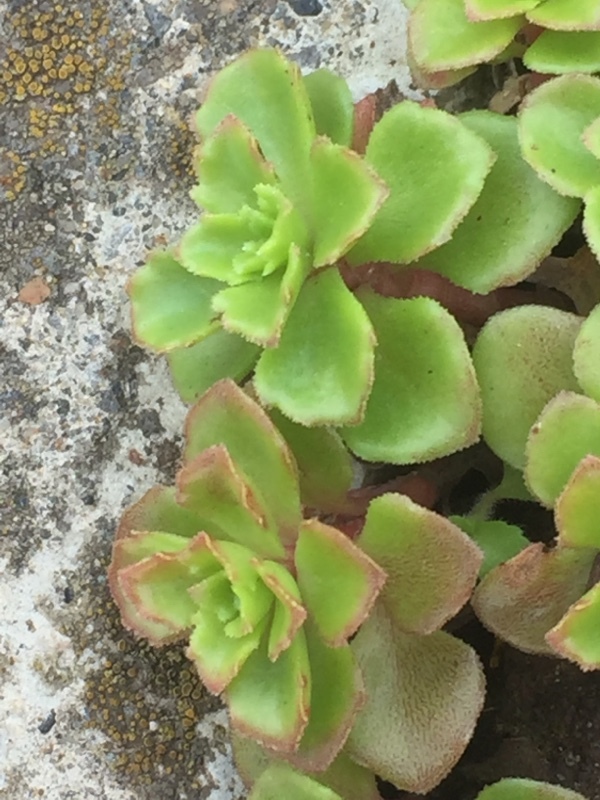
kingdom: Plantae
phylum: Tracheophyta
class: Magnoliopsida
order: Saxifragales
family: Crassulaceae
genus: Phedimus
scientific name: Phedimus stellatus
